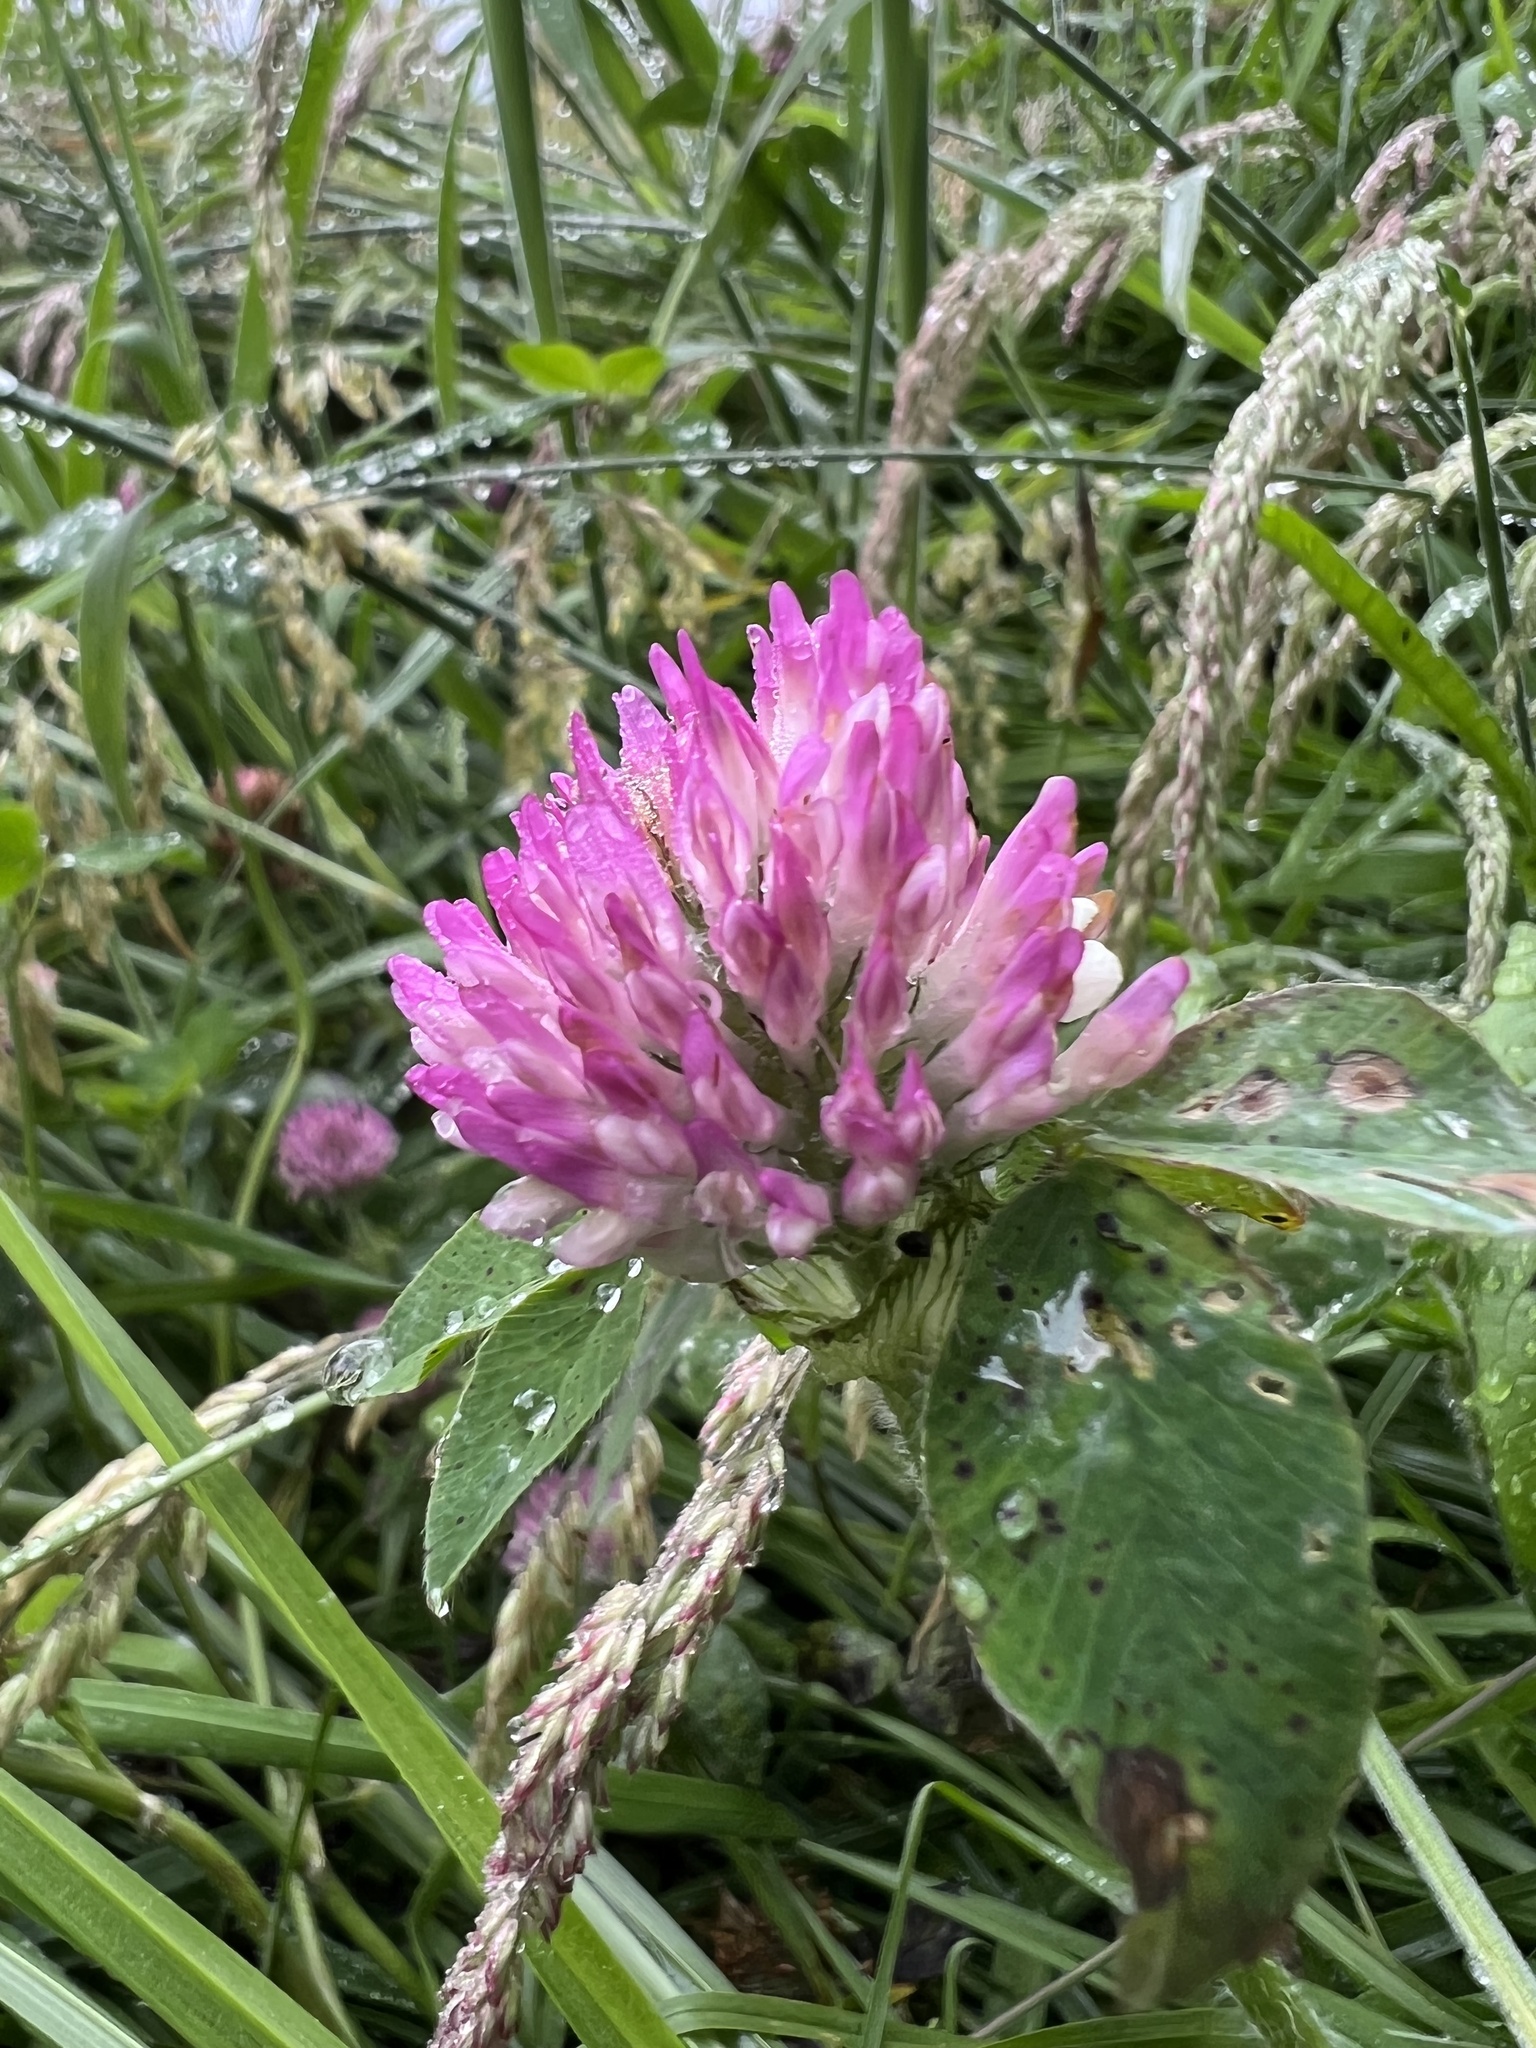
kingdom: Plantae
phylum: Tracheophyta
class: Magnoliopsida
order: Fabales
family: Fabaceae
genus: Trifolium
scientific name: Trifolium pratense
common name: Red clover
